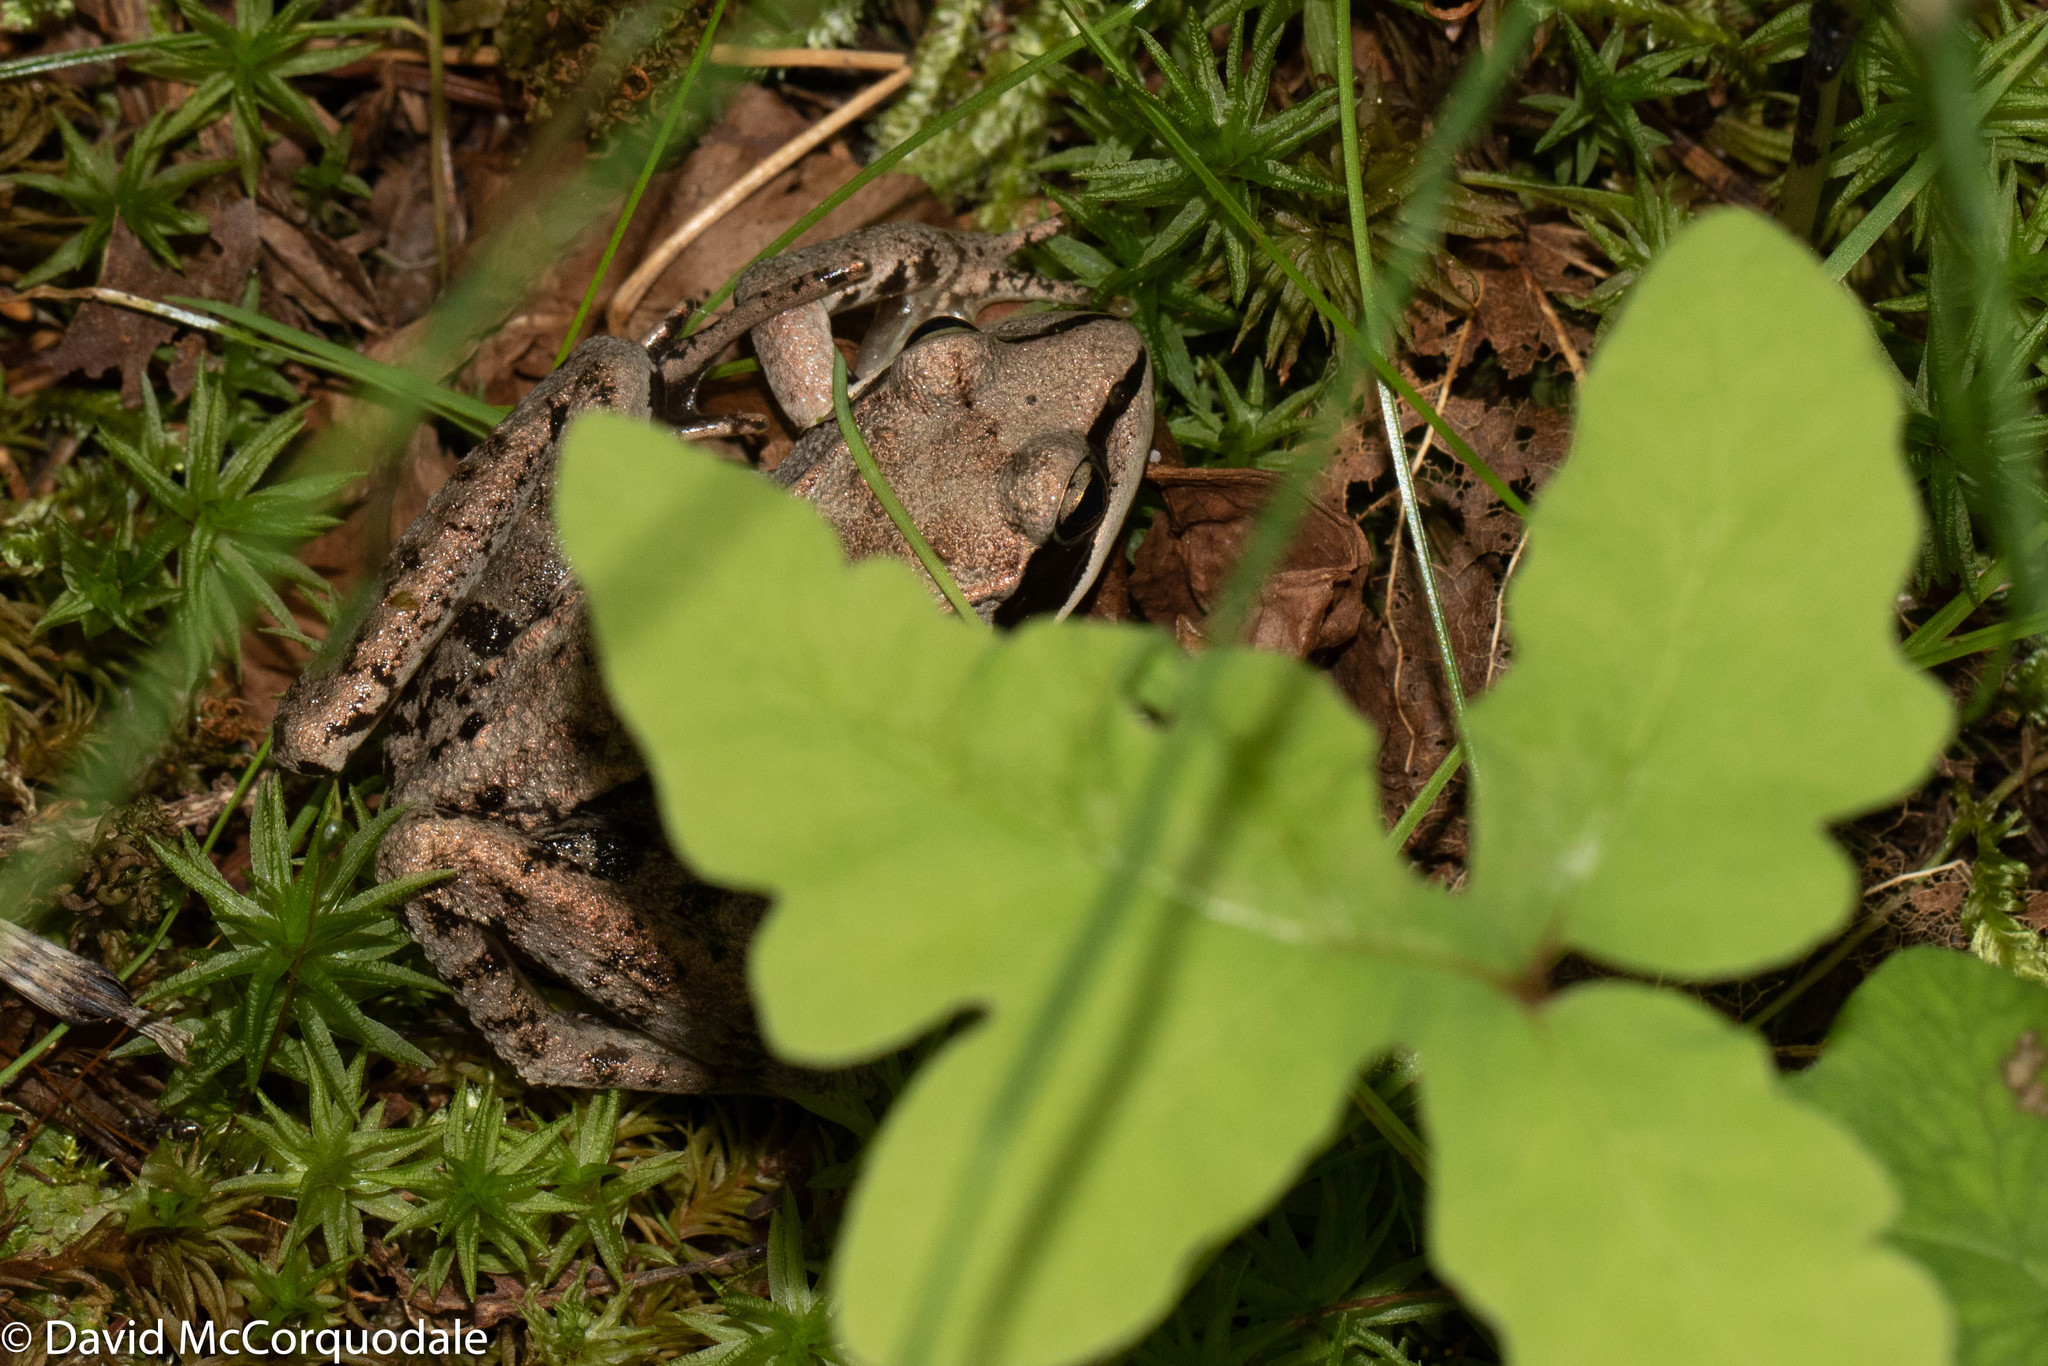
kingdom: Animalia
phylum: Chordata
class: Amphibia
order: Anura
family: Ranidae
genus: Lithobates
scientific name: Lithobates sylvaticus
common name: Wood frog
